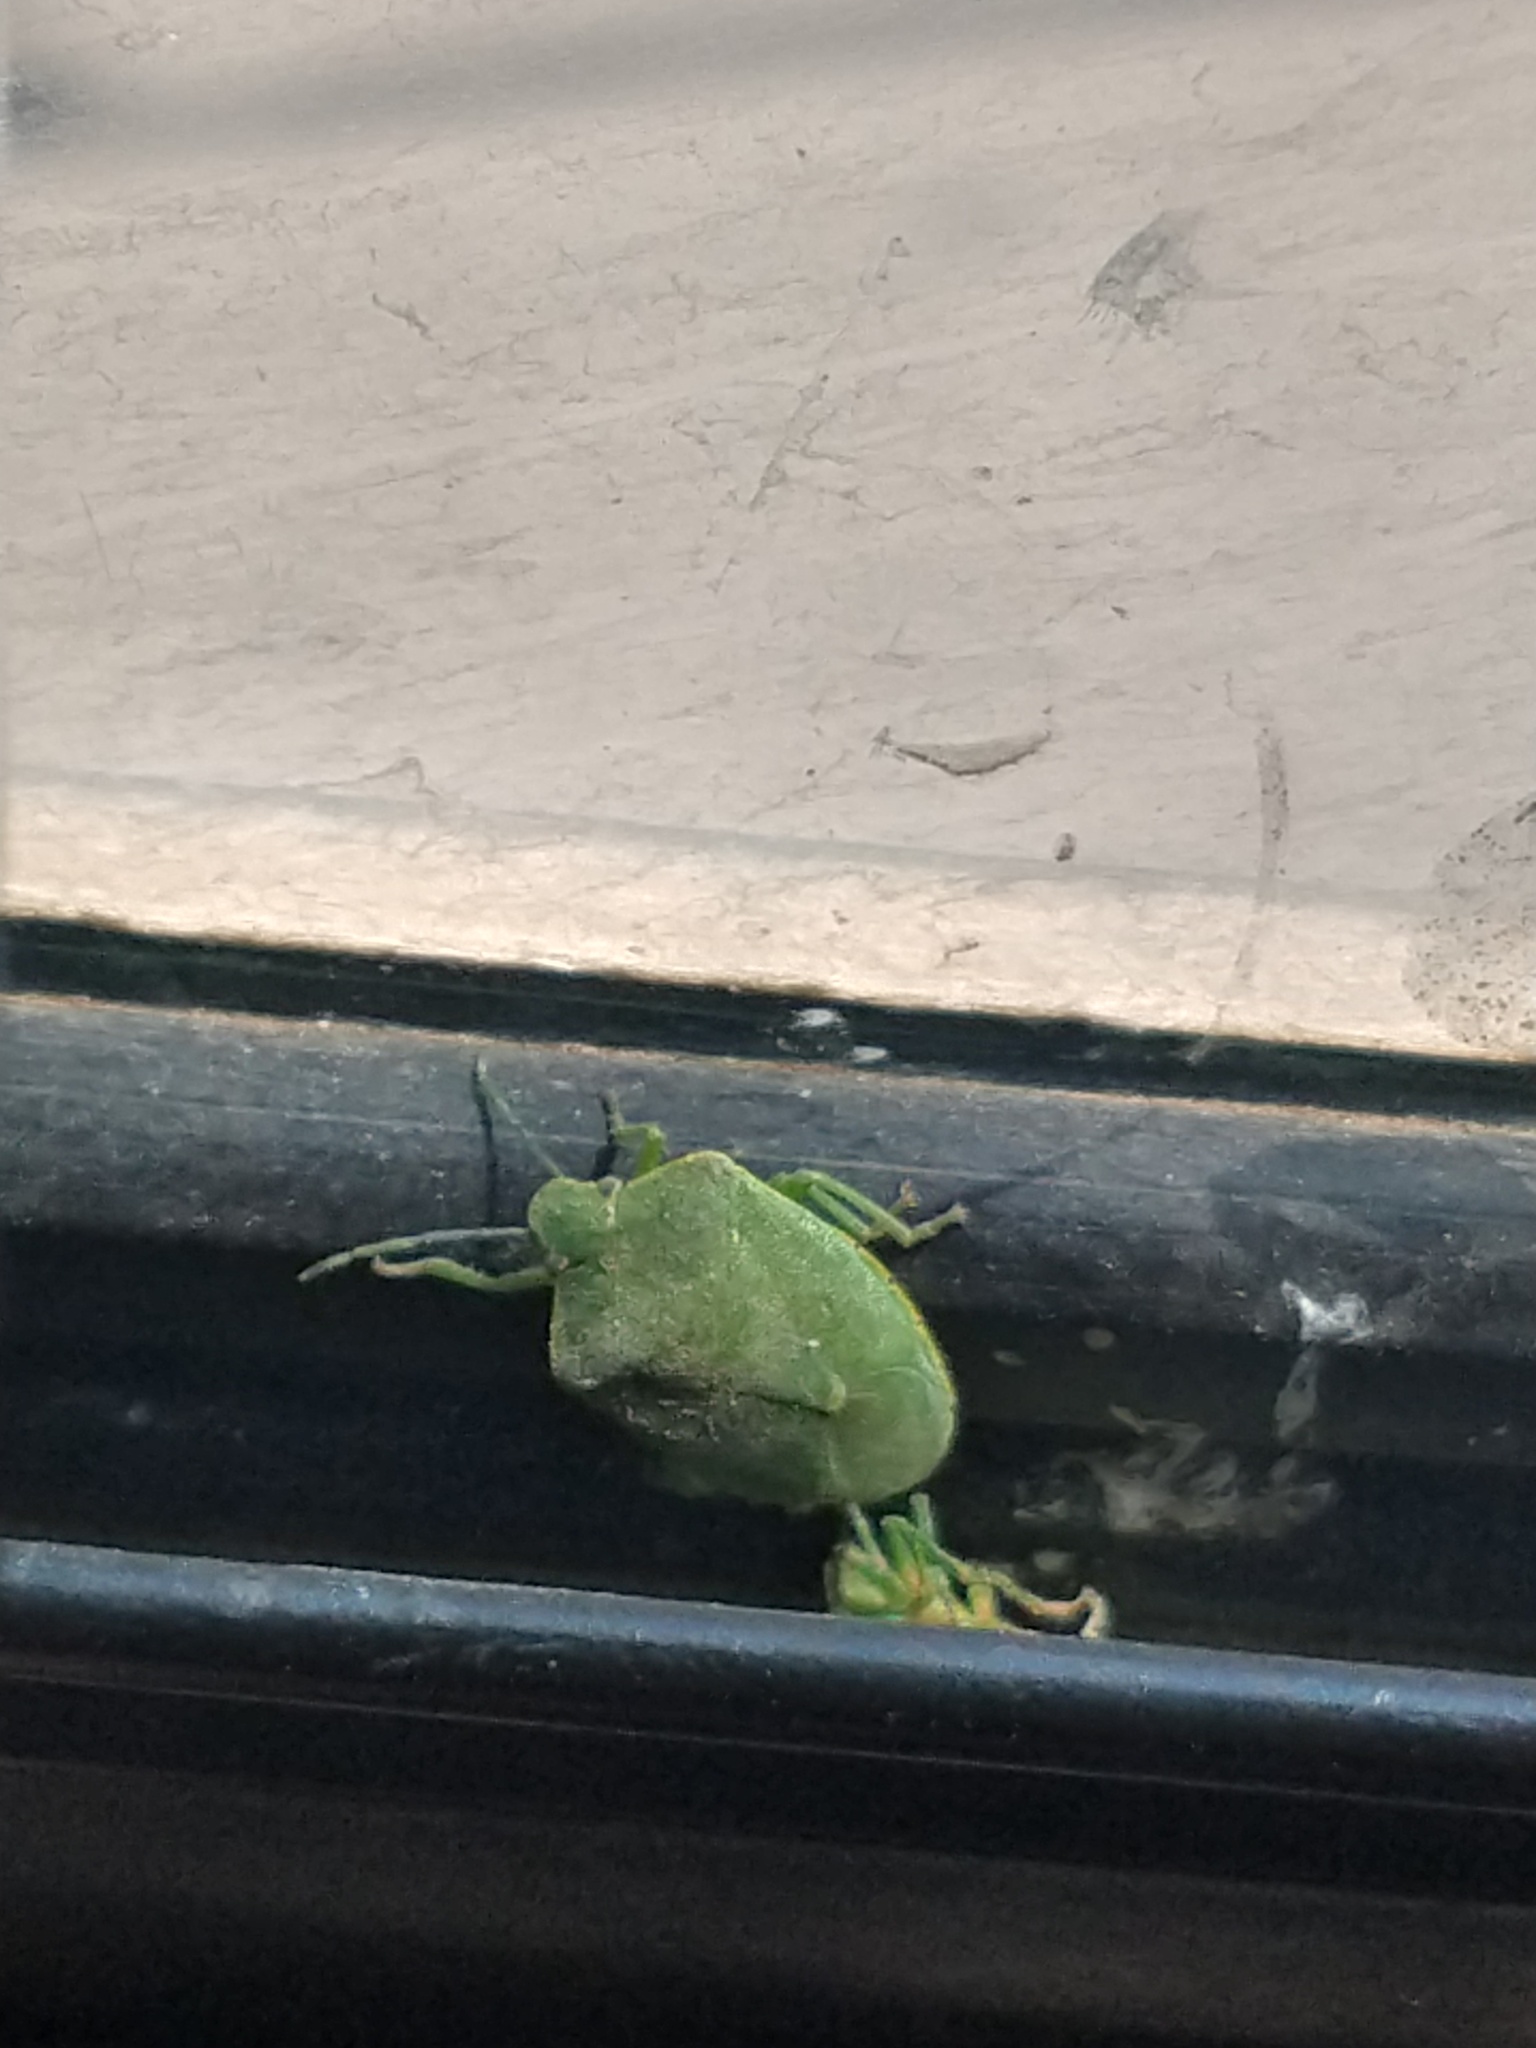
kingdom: Animalia
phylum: Arthropoda
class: Insecta
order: Hemiptera
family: Pentatomidae
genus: Chinavia
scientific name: Chinavia
